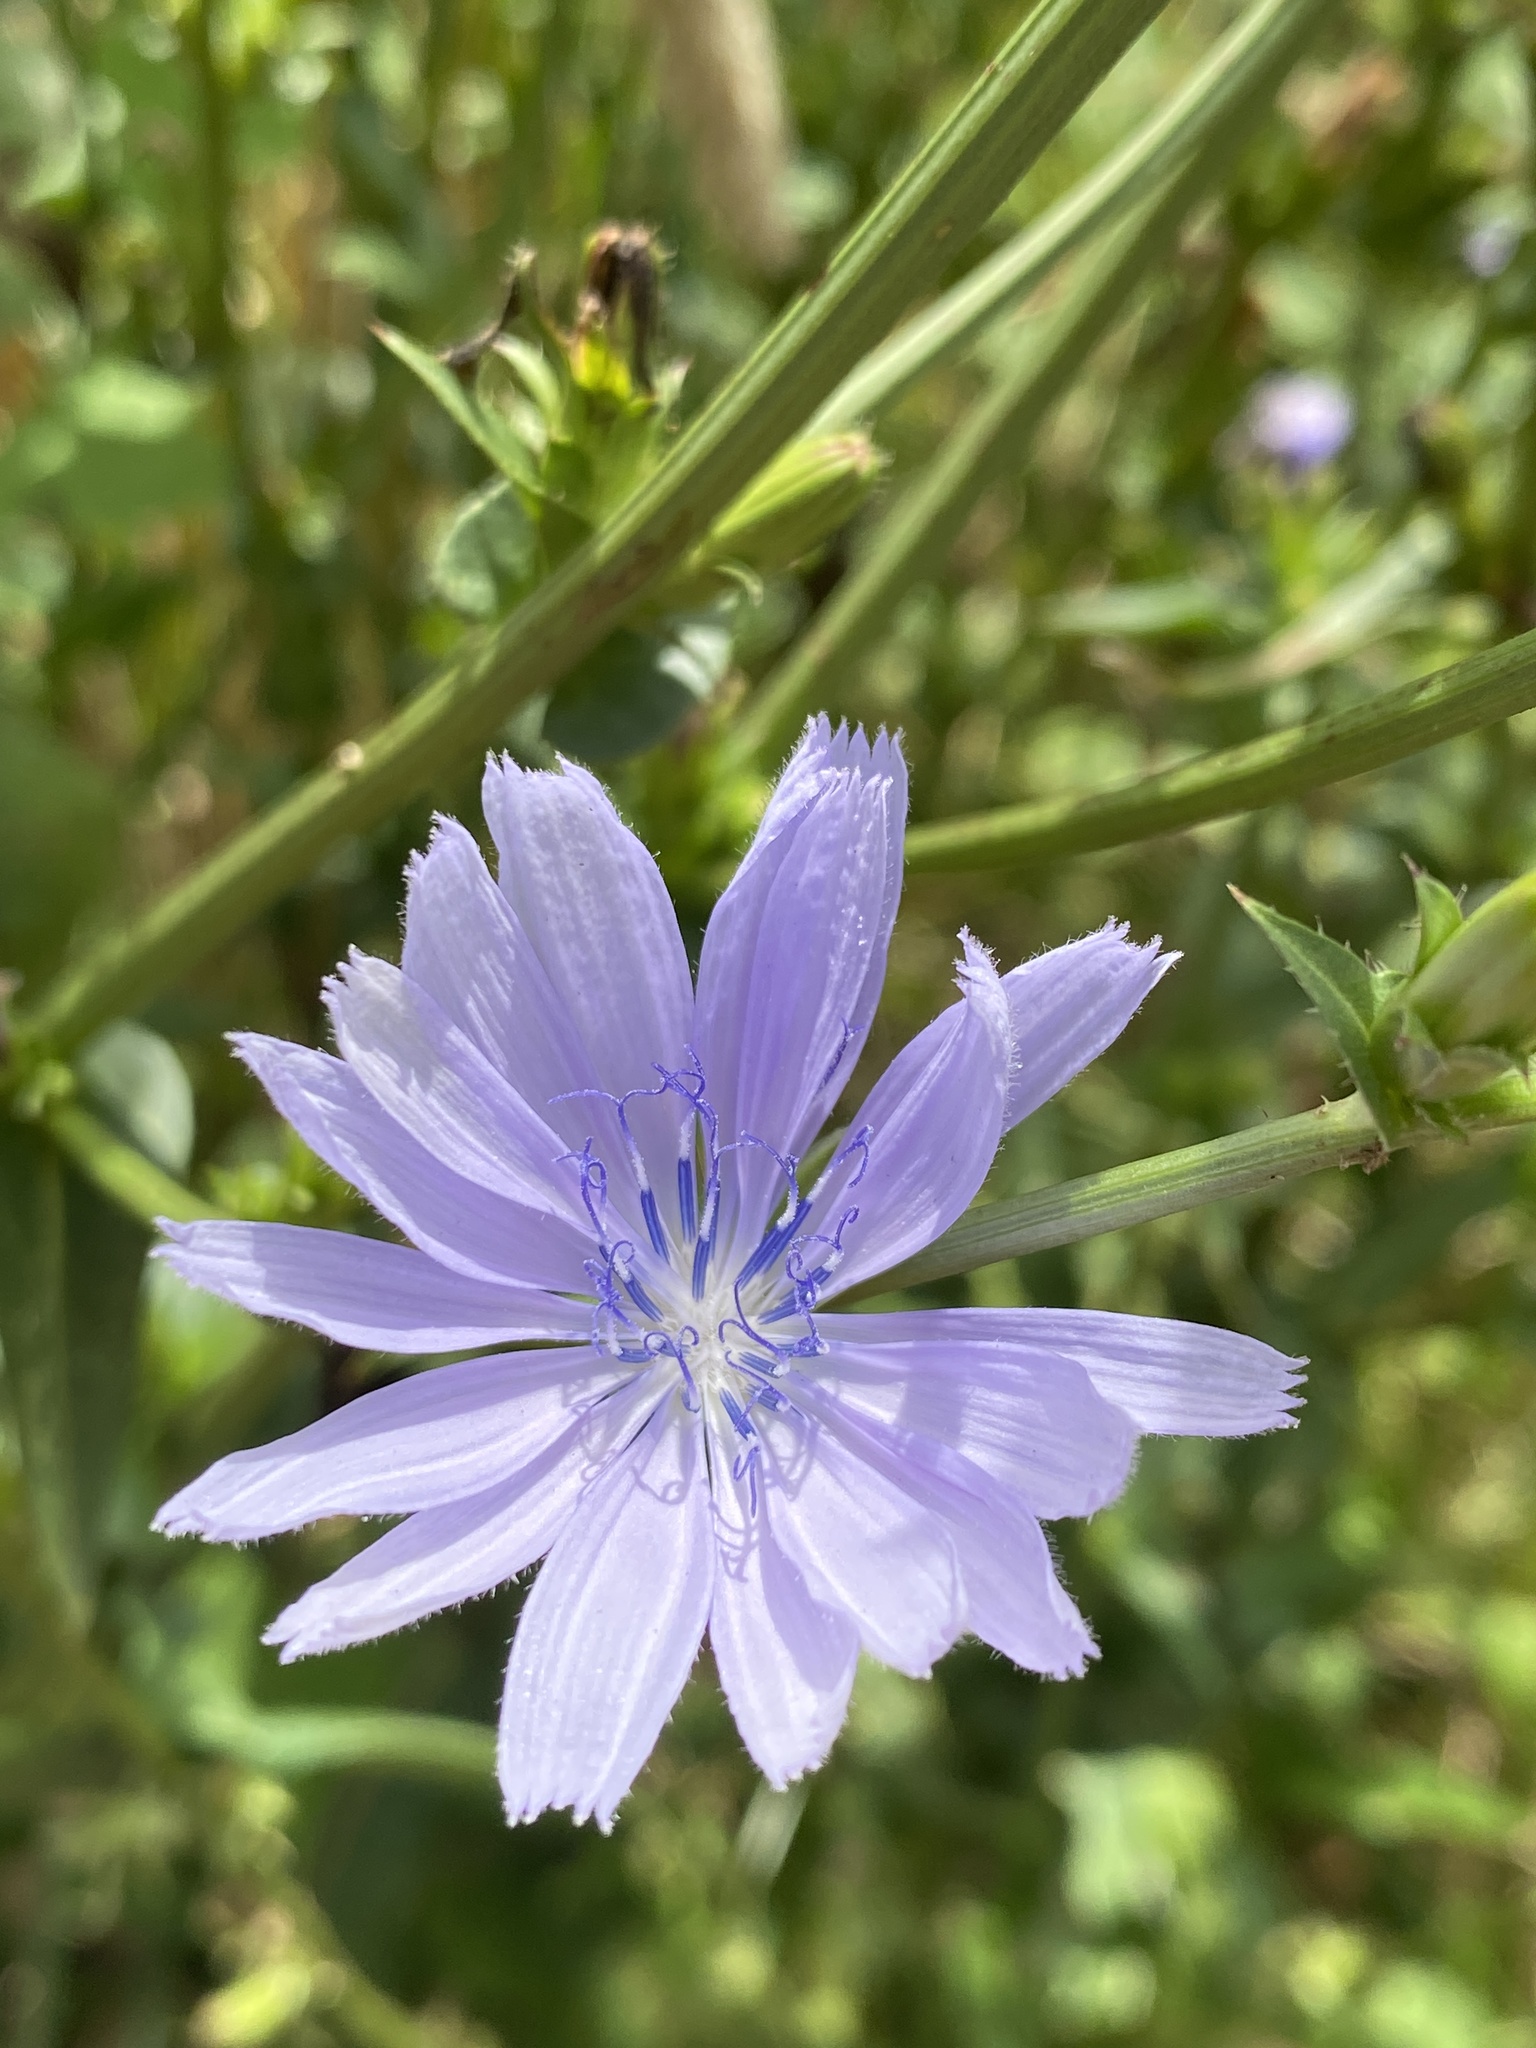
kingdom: Plantae
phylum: Tracheophyta
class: Magnoliopsida
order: Asterales
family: Asteraceae
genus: Cichorium
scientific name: Cichorium intybus
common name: Chicory
